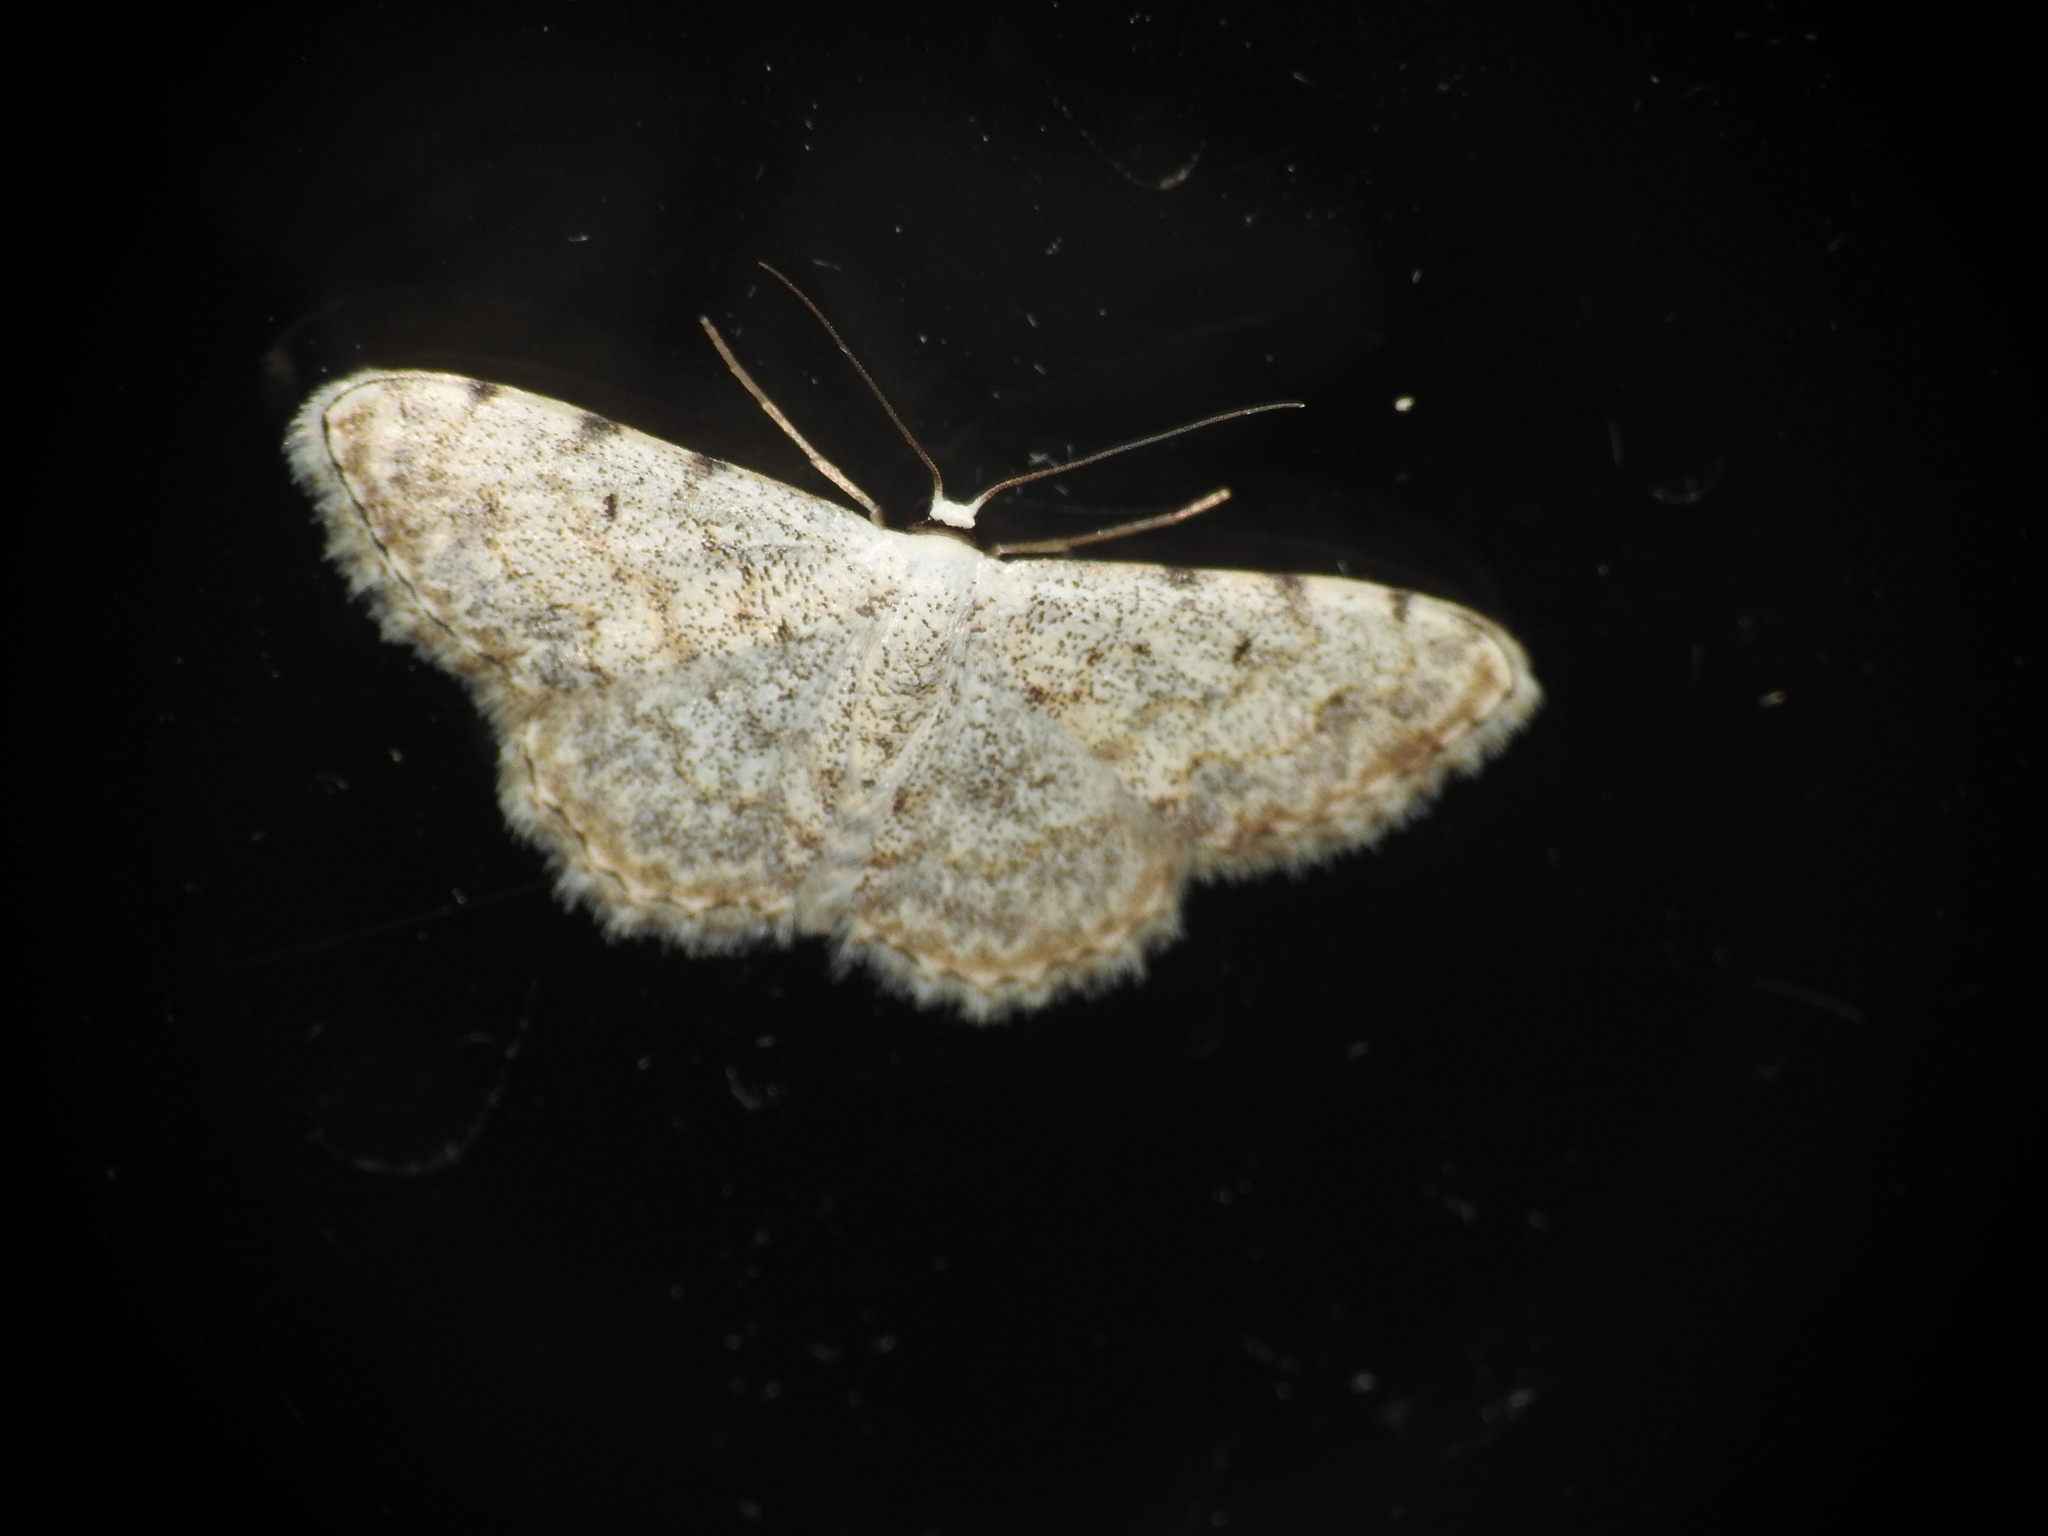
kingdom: Animalia
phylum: Arthropoda
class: Insecta
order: Lepidoptera
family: Geometridae
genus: Scopula
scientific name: Scopula submutata
